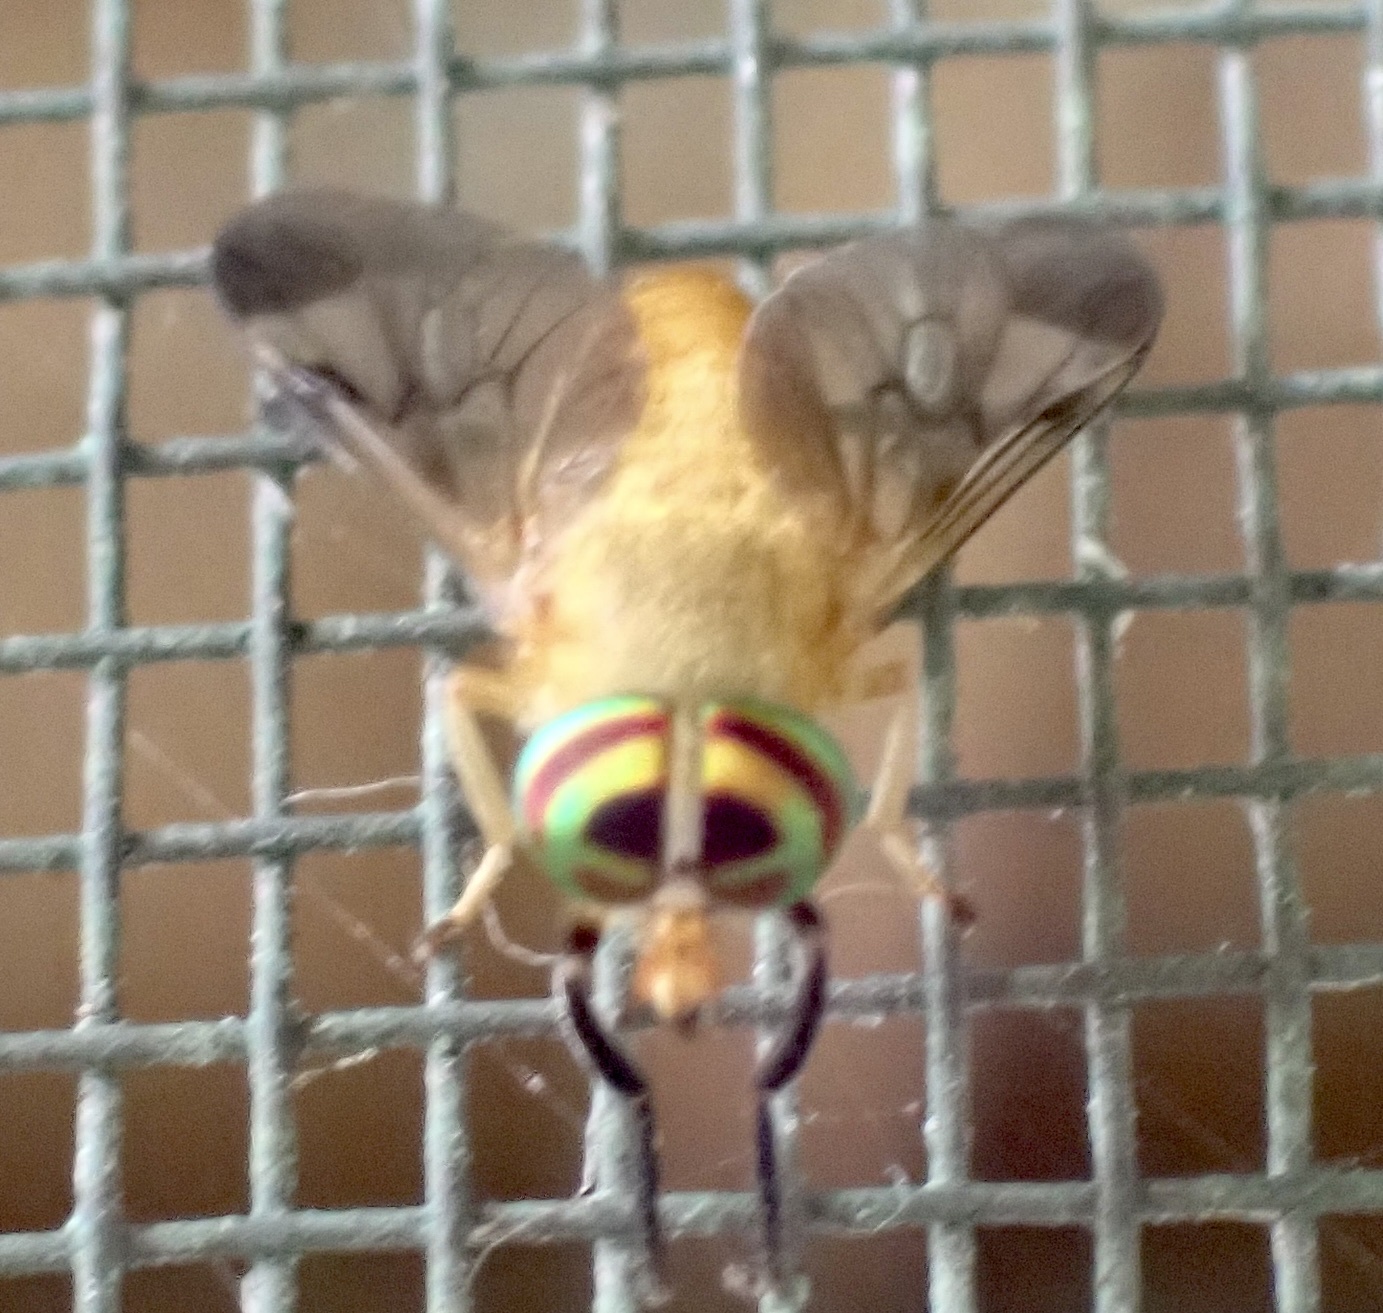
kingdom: Animalia
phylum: Arthropoda
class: Insecta
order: Diptera
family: Tabanidae
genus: Diachlorus
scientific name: Diachlorus ferrugatus
